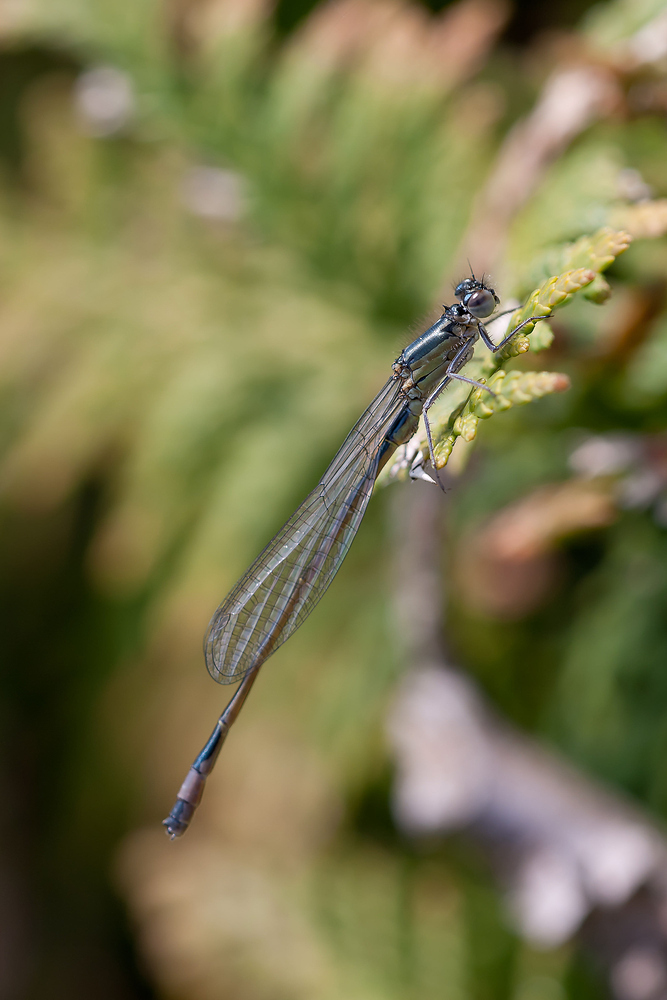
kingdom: Animalia
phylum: Arthropoda
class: Insecta
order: Odonata
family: Coenagrionidae
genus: Ischnura
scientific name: Ischnura elegans
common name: Blue-tailed damselfly
